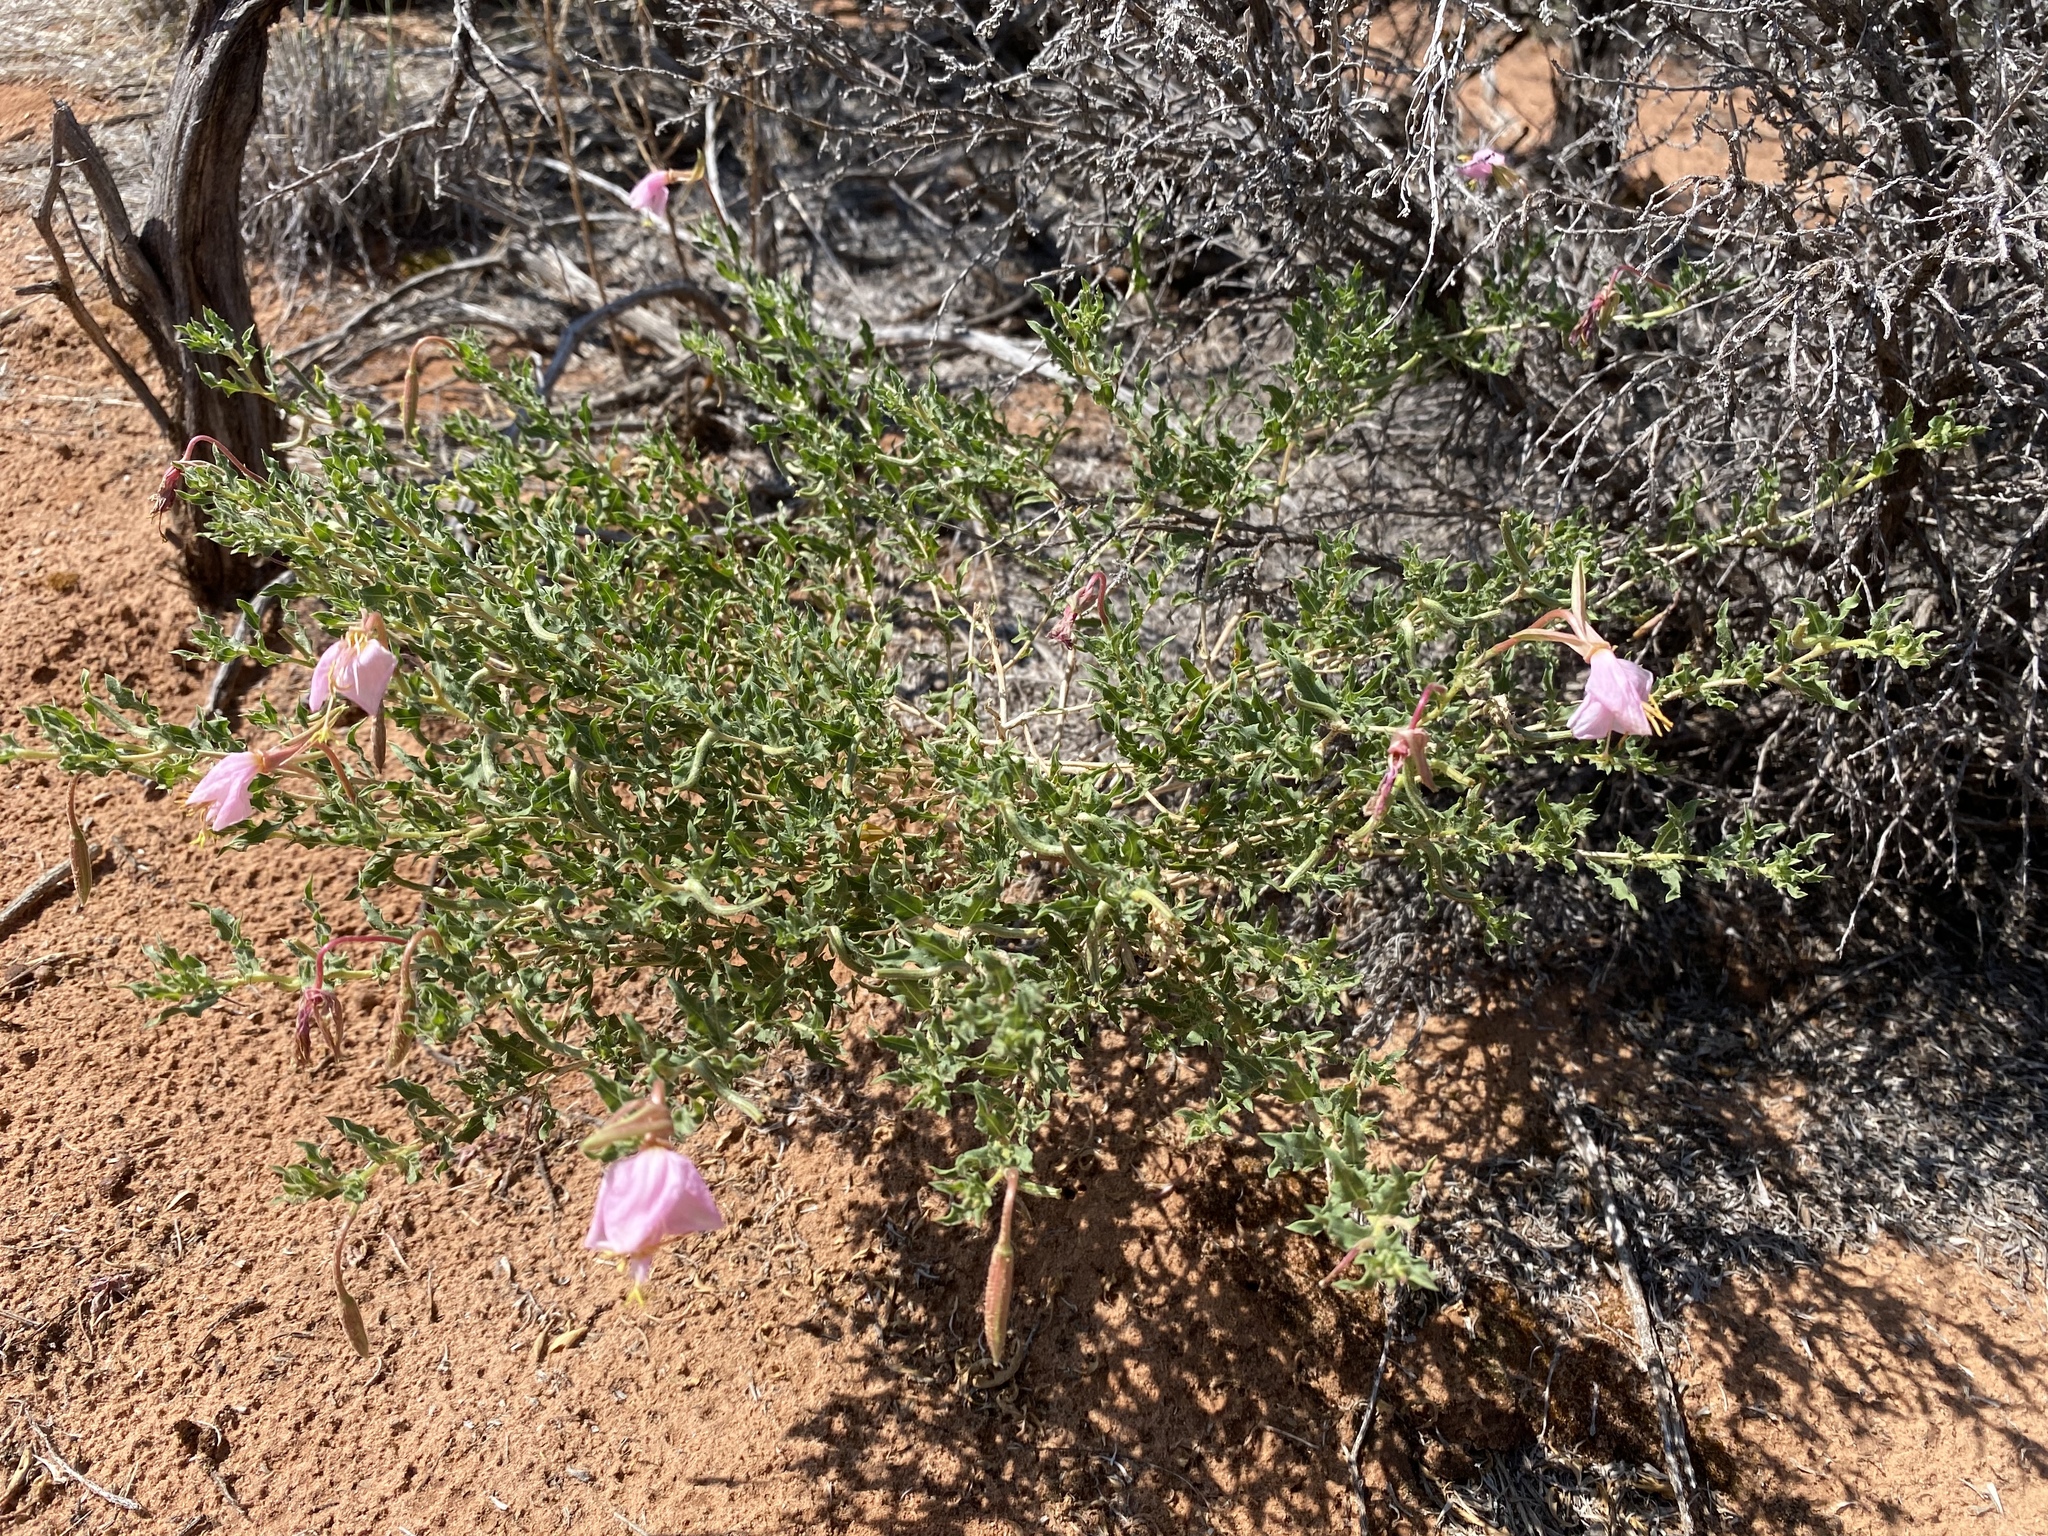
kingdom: Plantae
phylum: Tracheophyta
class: Magnoliopsida
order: Myrtales
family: Onagraceae
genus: Oenothera
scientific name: Oenothera pallida
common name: Pale evening-primrose
